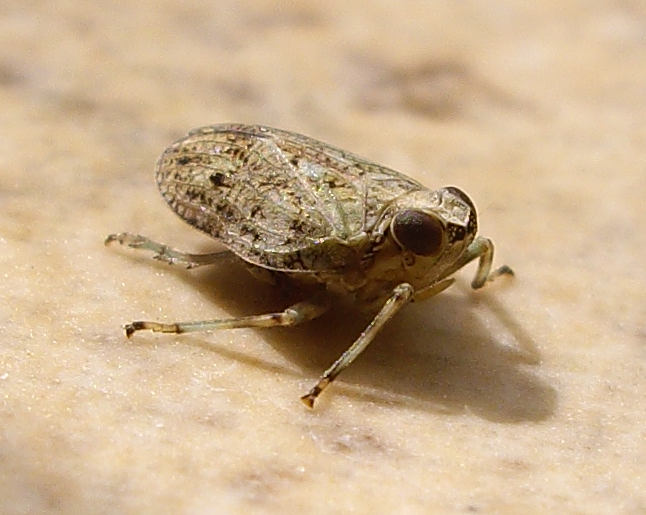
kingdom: Animalia
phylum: Arthropoda
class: Insecta
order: Hemiptera
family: Issidae
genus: Issus
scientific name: Issus coleoptratus
